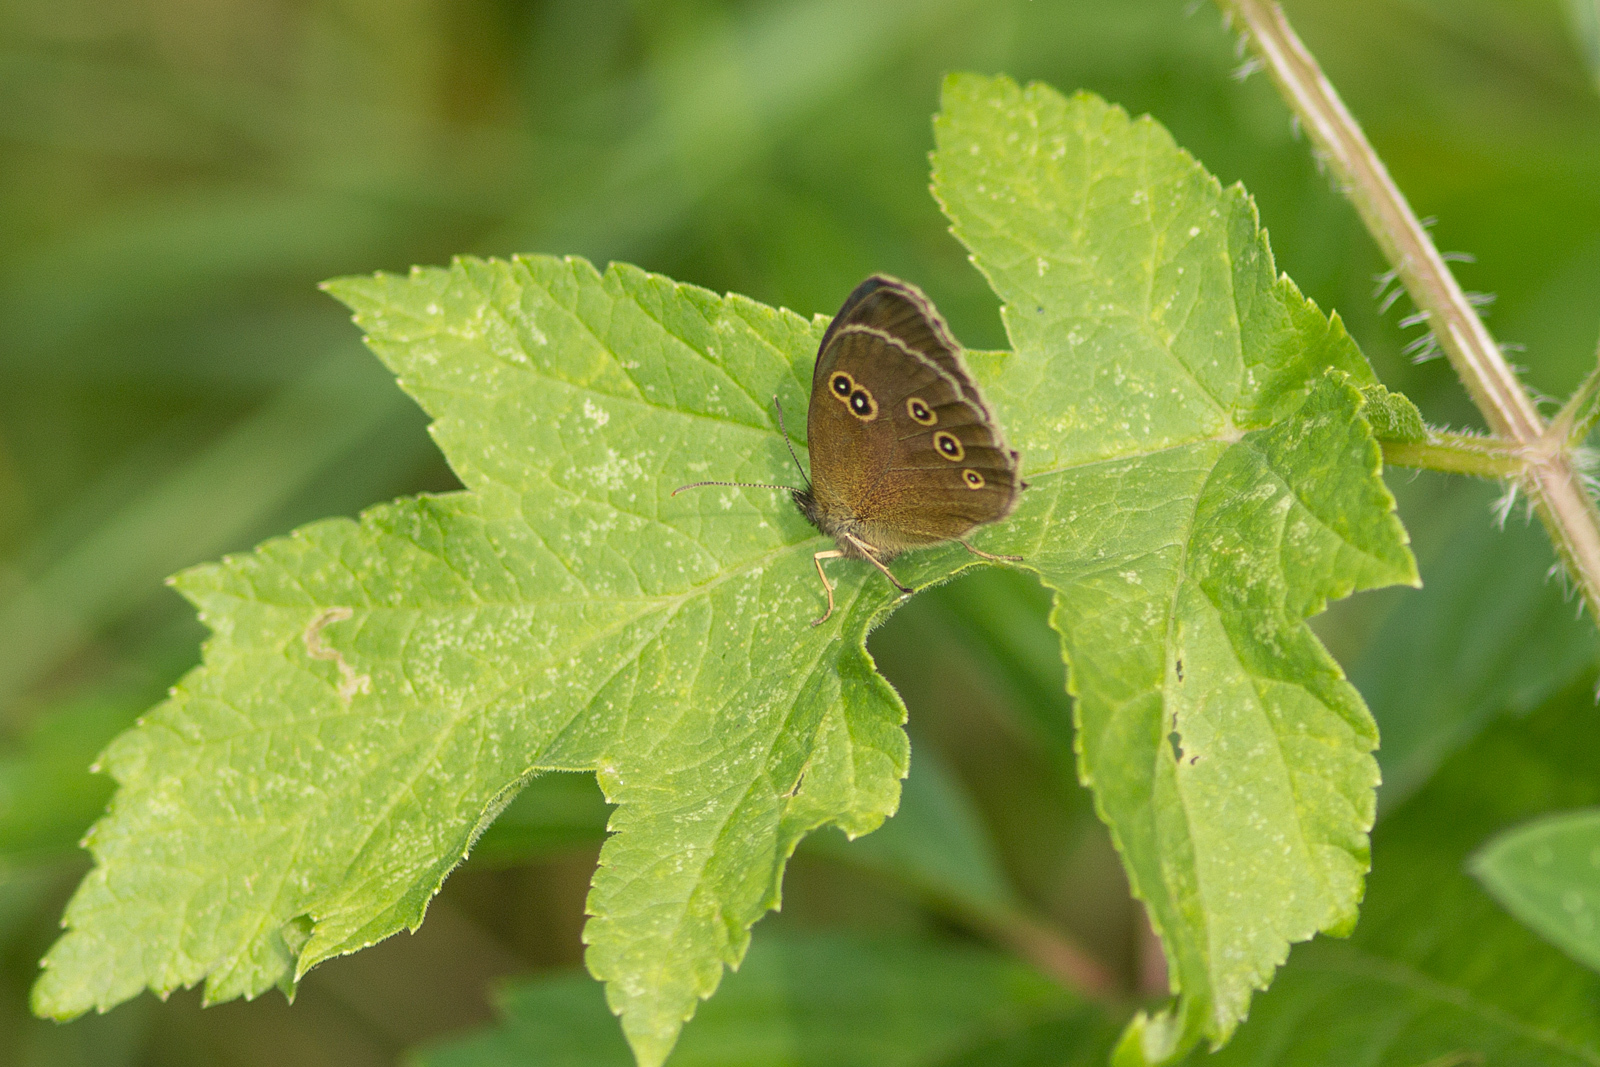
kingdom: Animalia
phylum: Arthropoda
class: Insecta
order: Lepidoptera
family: Nymphalidae
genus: Aphantopus
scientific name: Aphantopus hyperantus
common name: Ringlet
